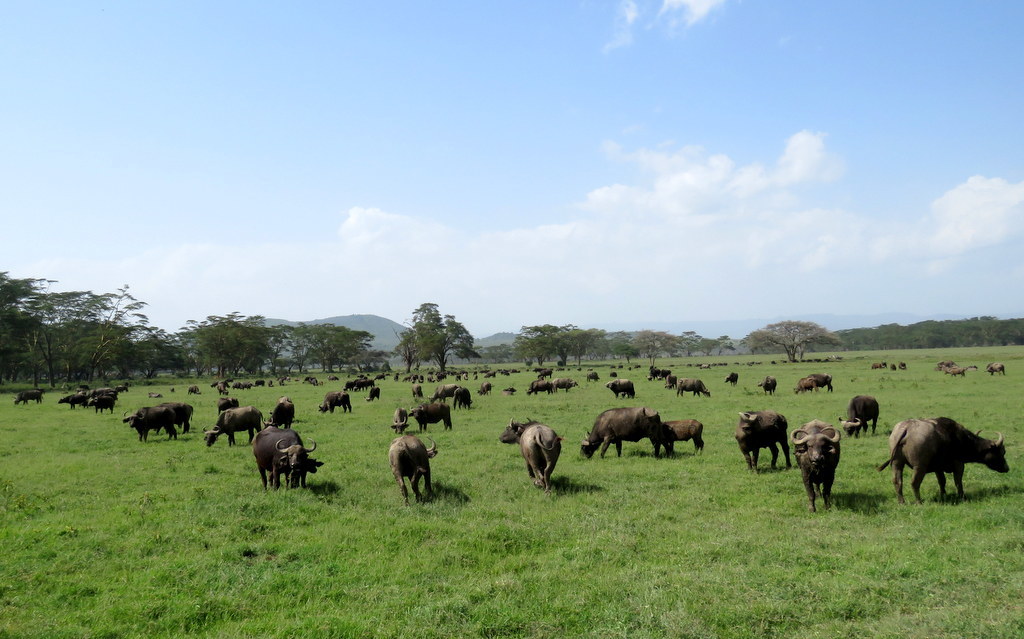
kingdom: Animalia
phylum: Chordata
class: Mammalia
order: Artiodactyla
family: Bovidae
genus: Syncerus
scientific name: Syncerus caffer
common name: African buffalo
